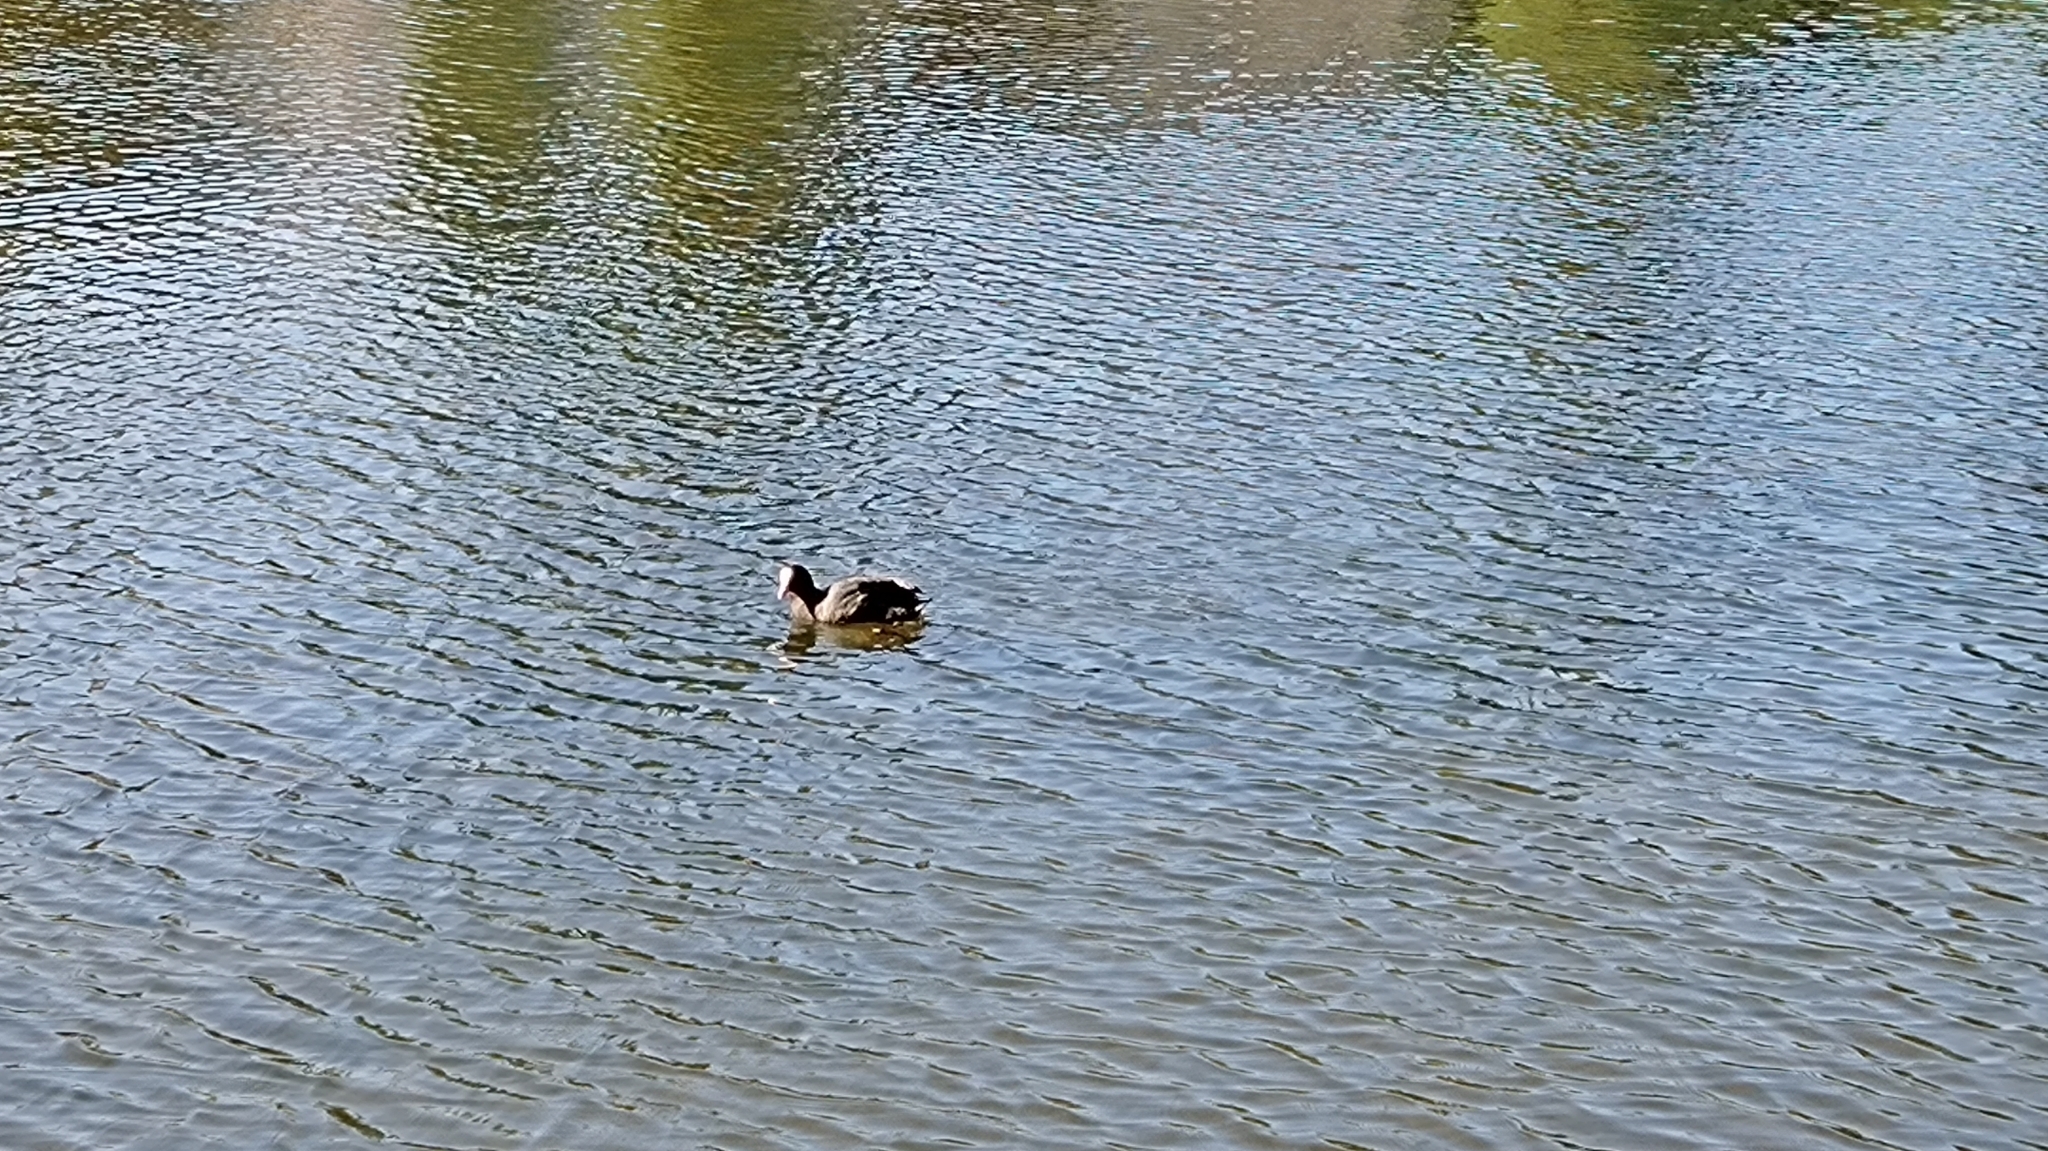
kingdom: Animalia
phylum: Chordata
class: Aves
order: Gruiformes
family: Rallidae
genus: Fulica
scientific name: Fulica atra
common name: Eurasian coot
